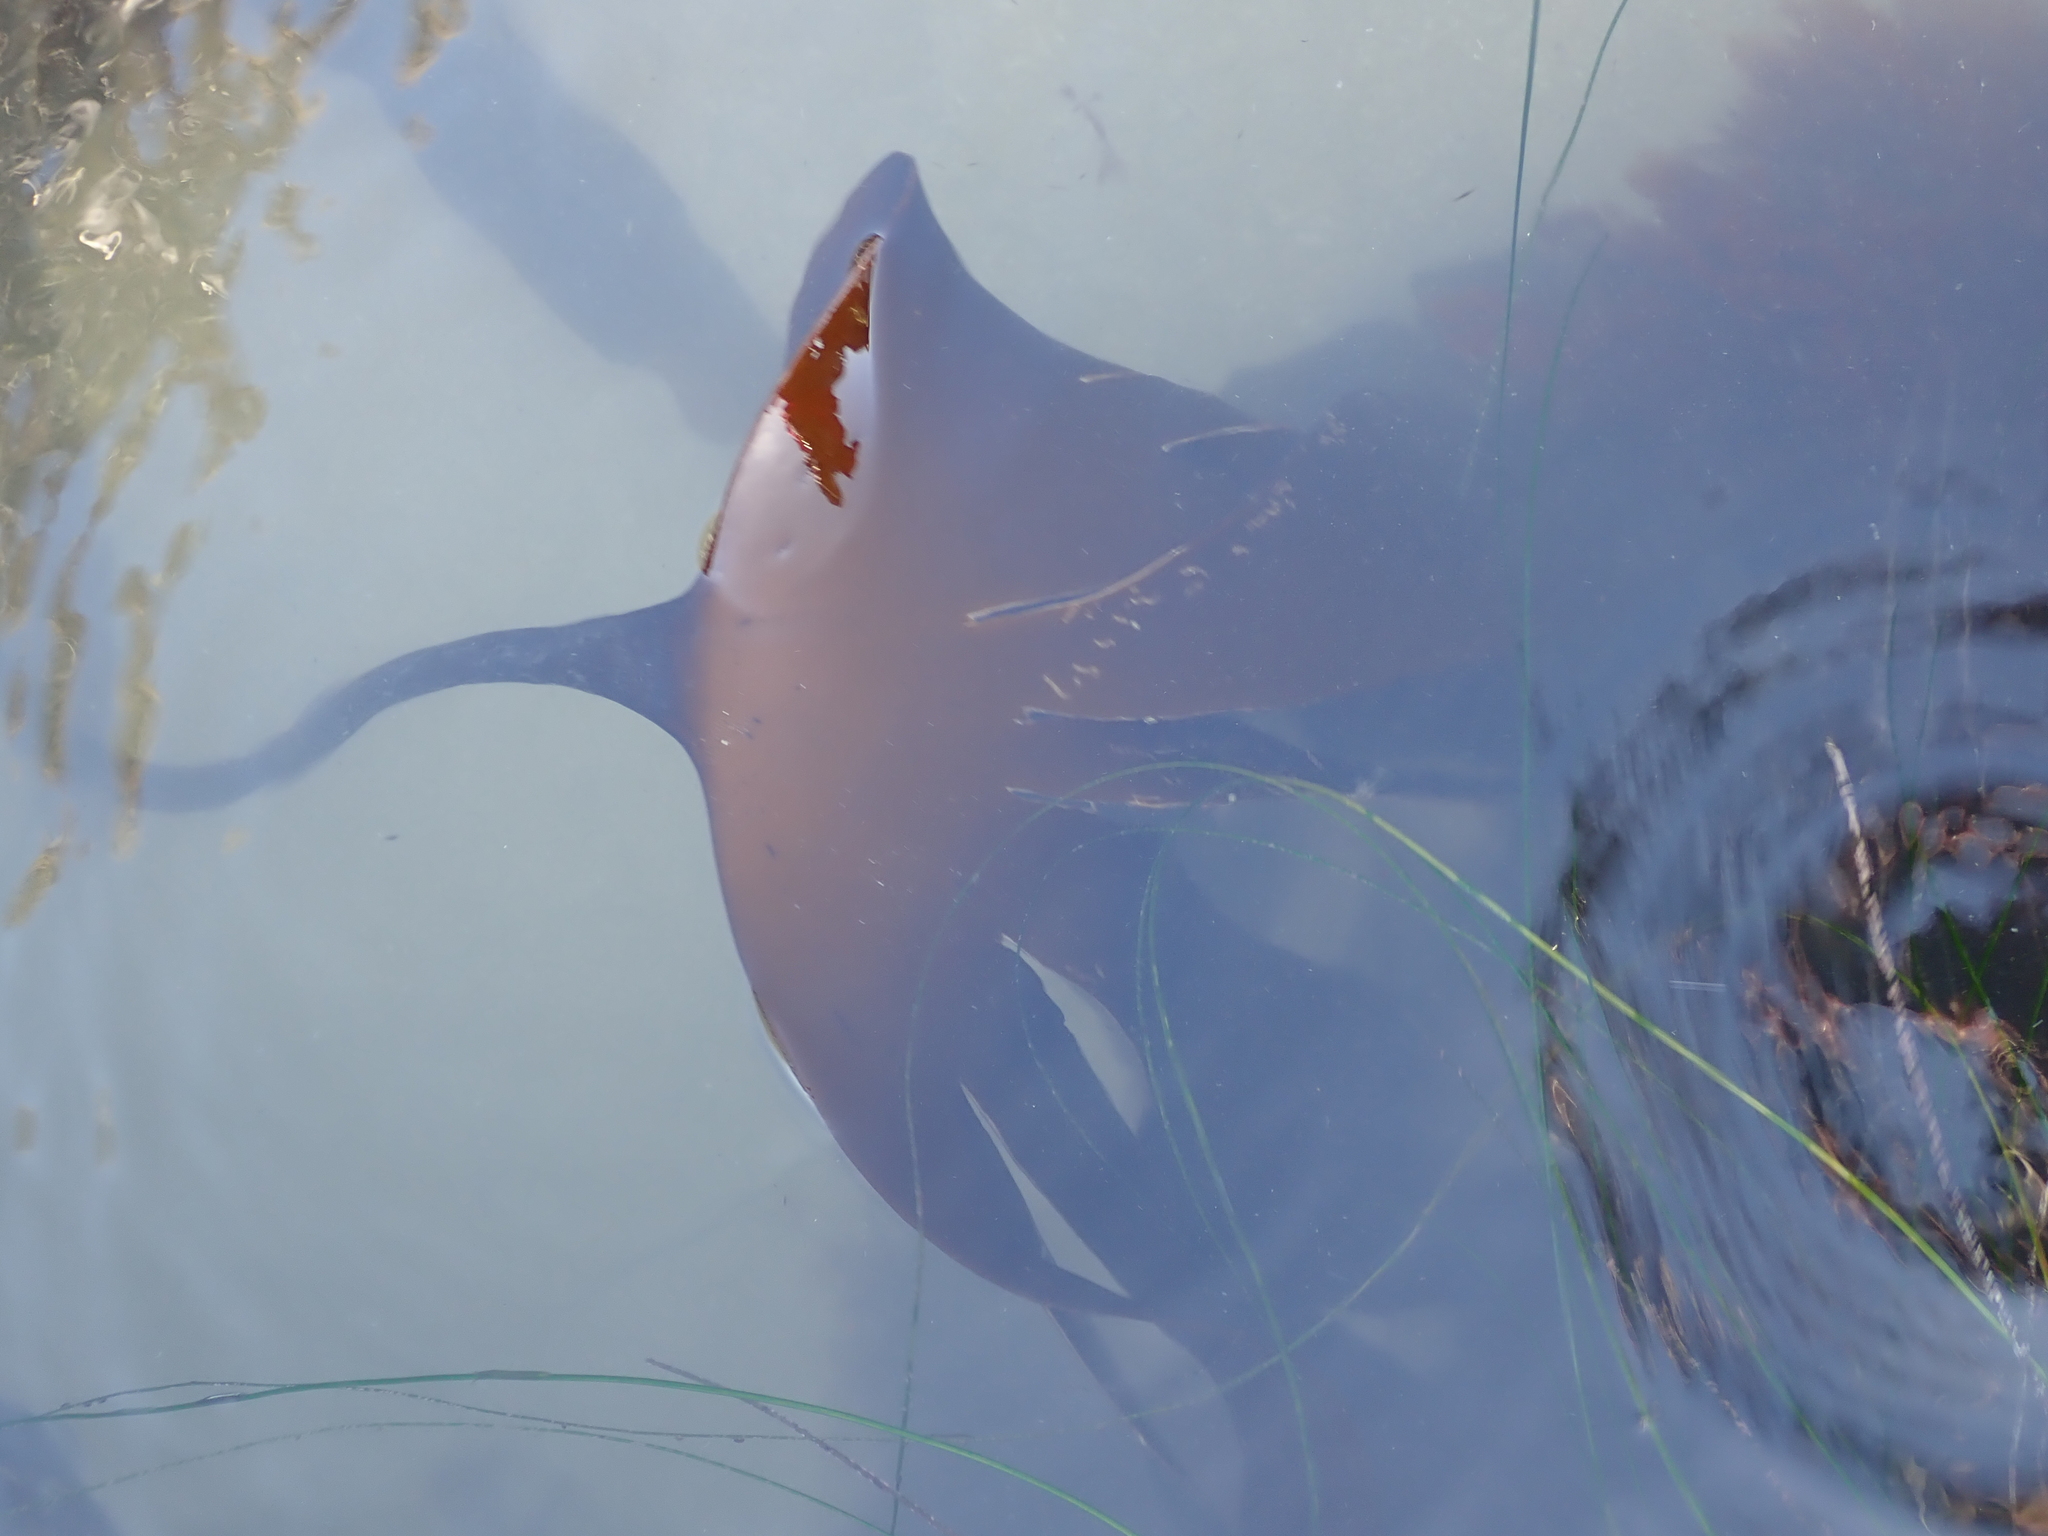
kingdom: Chromista
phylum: Ochrophyta
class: Phaeophyceae
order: Laminariales
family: Laminariaceae
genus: Laminaria
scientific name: Laminaria setchellii
